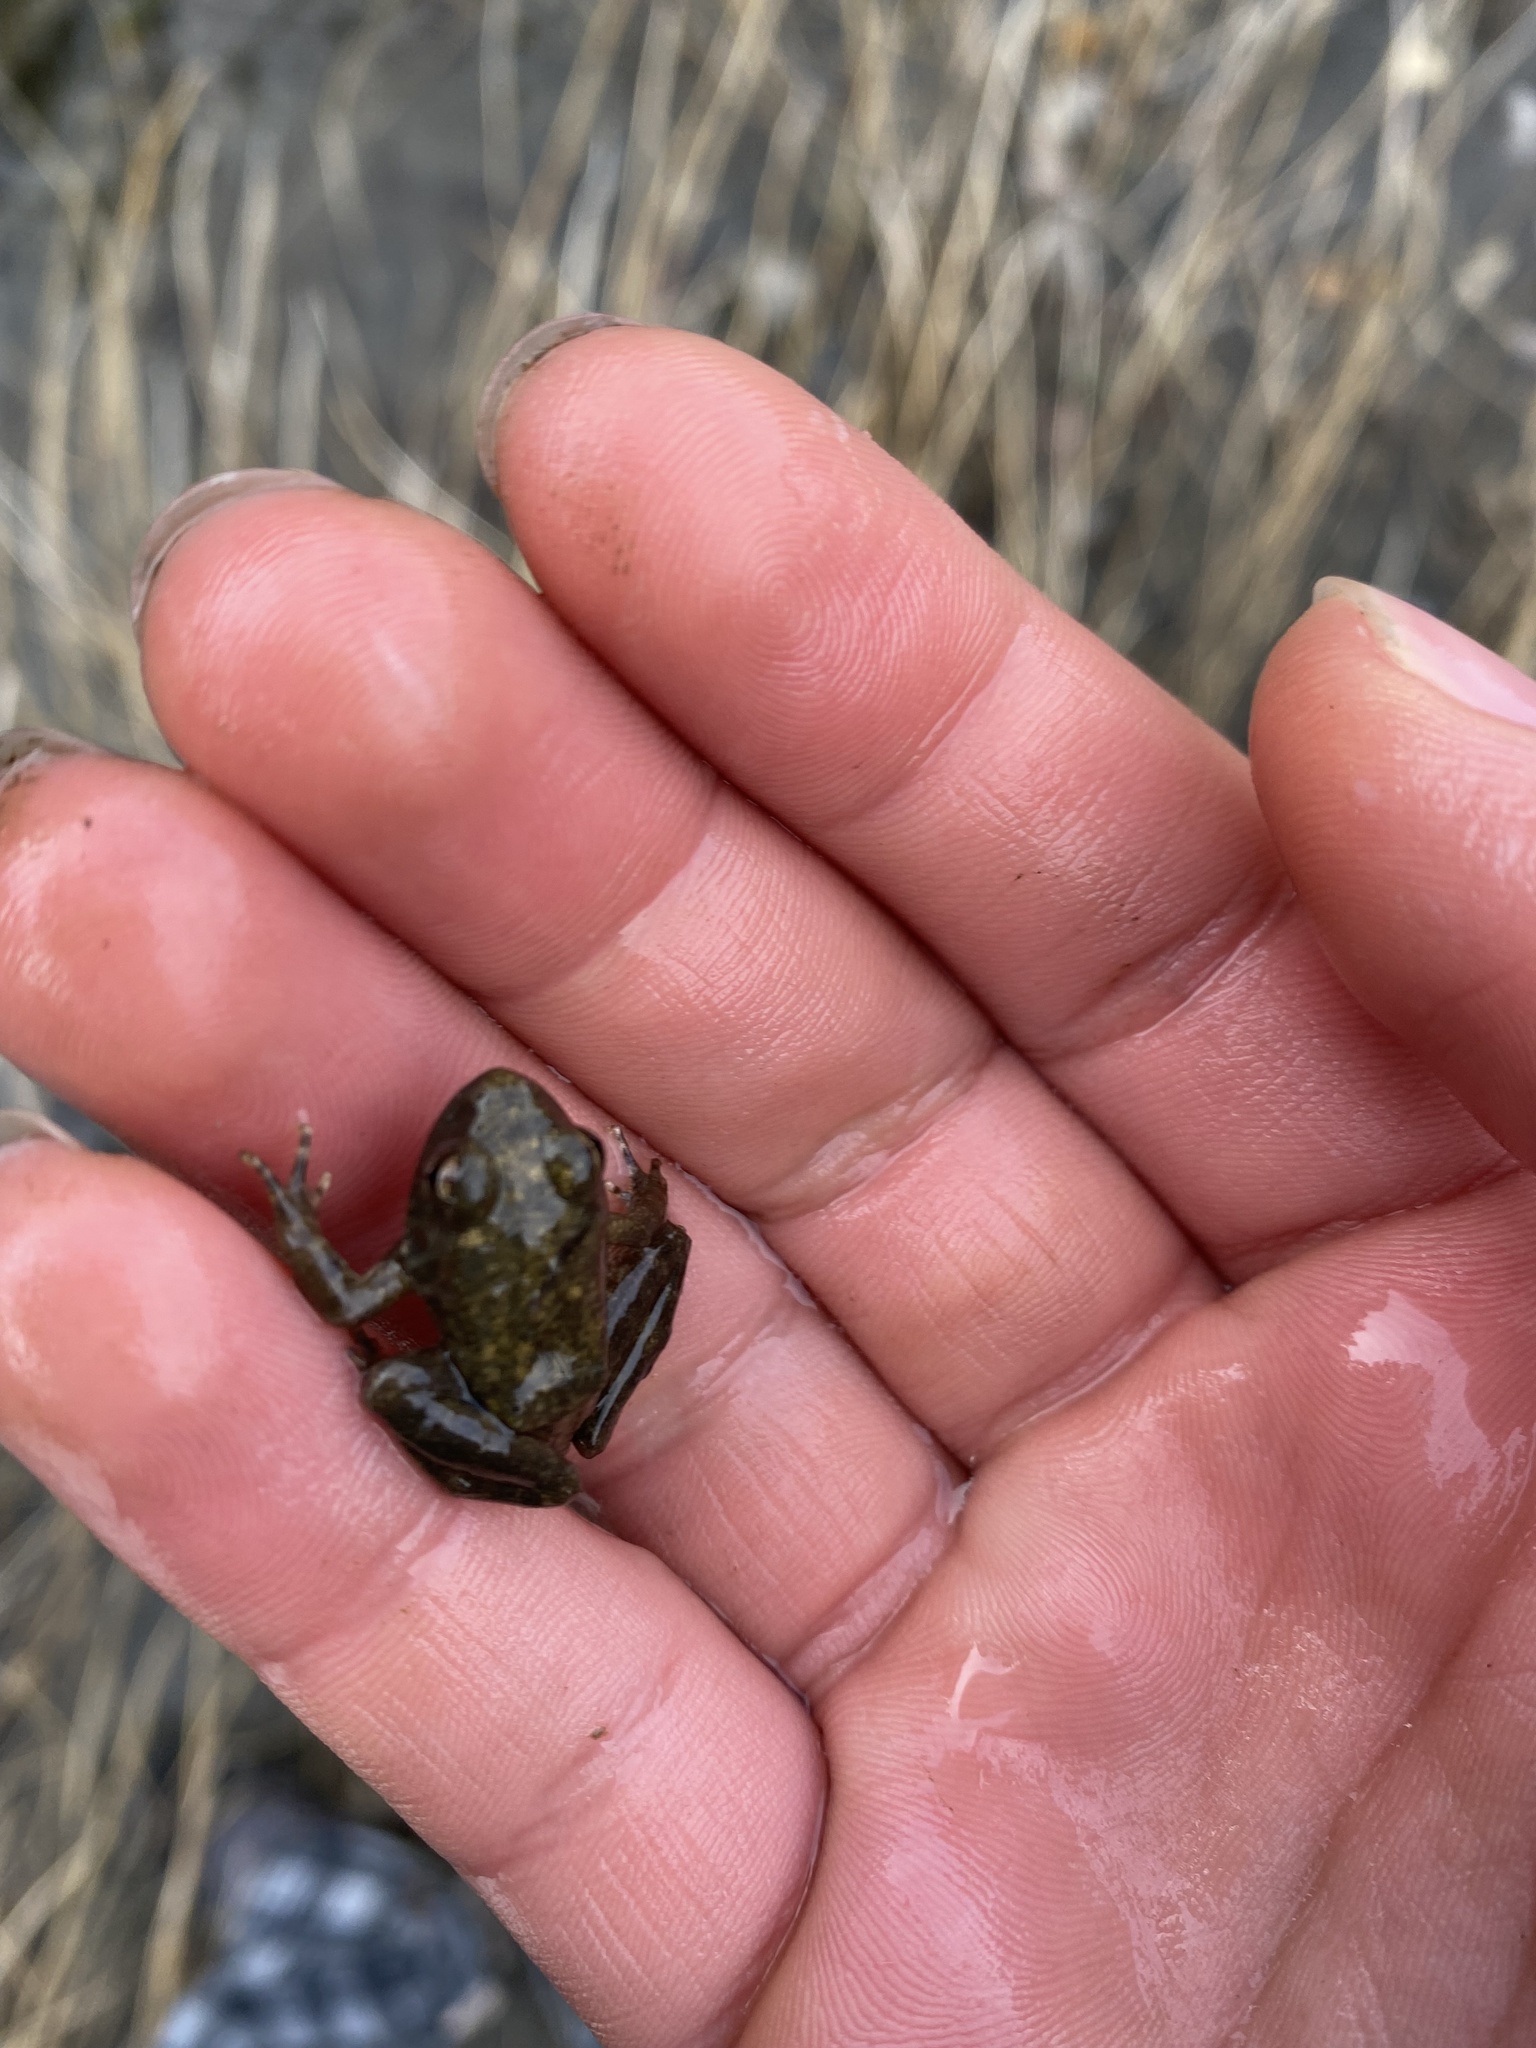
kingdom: Animalia
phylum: Chordata
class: Amphibia
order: Anura
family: Ranidae
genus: Rana
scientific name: Rana boylii
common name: Foothill yellow-legged frog
